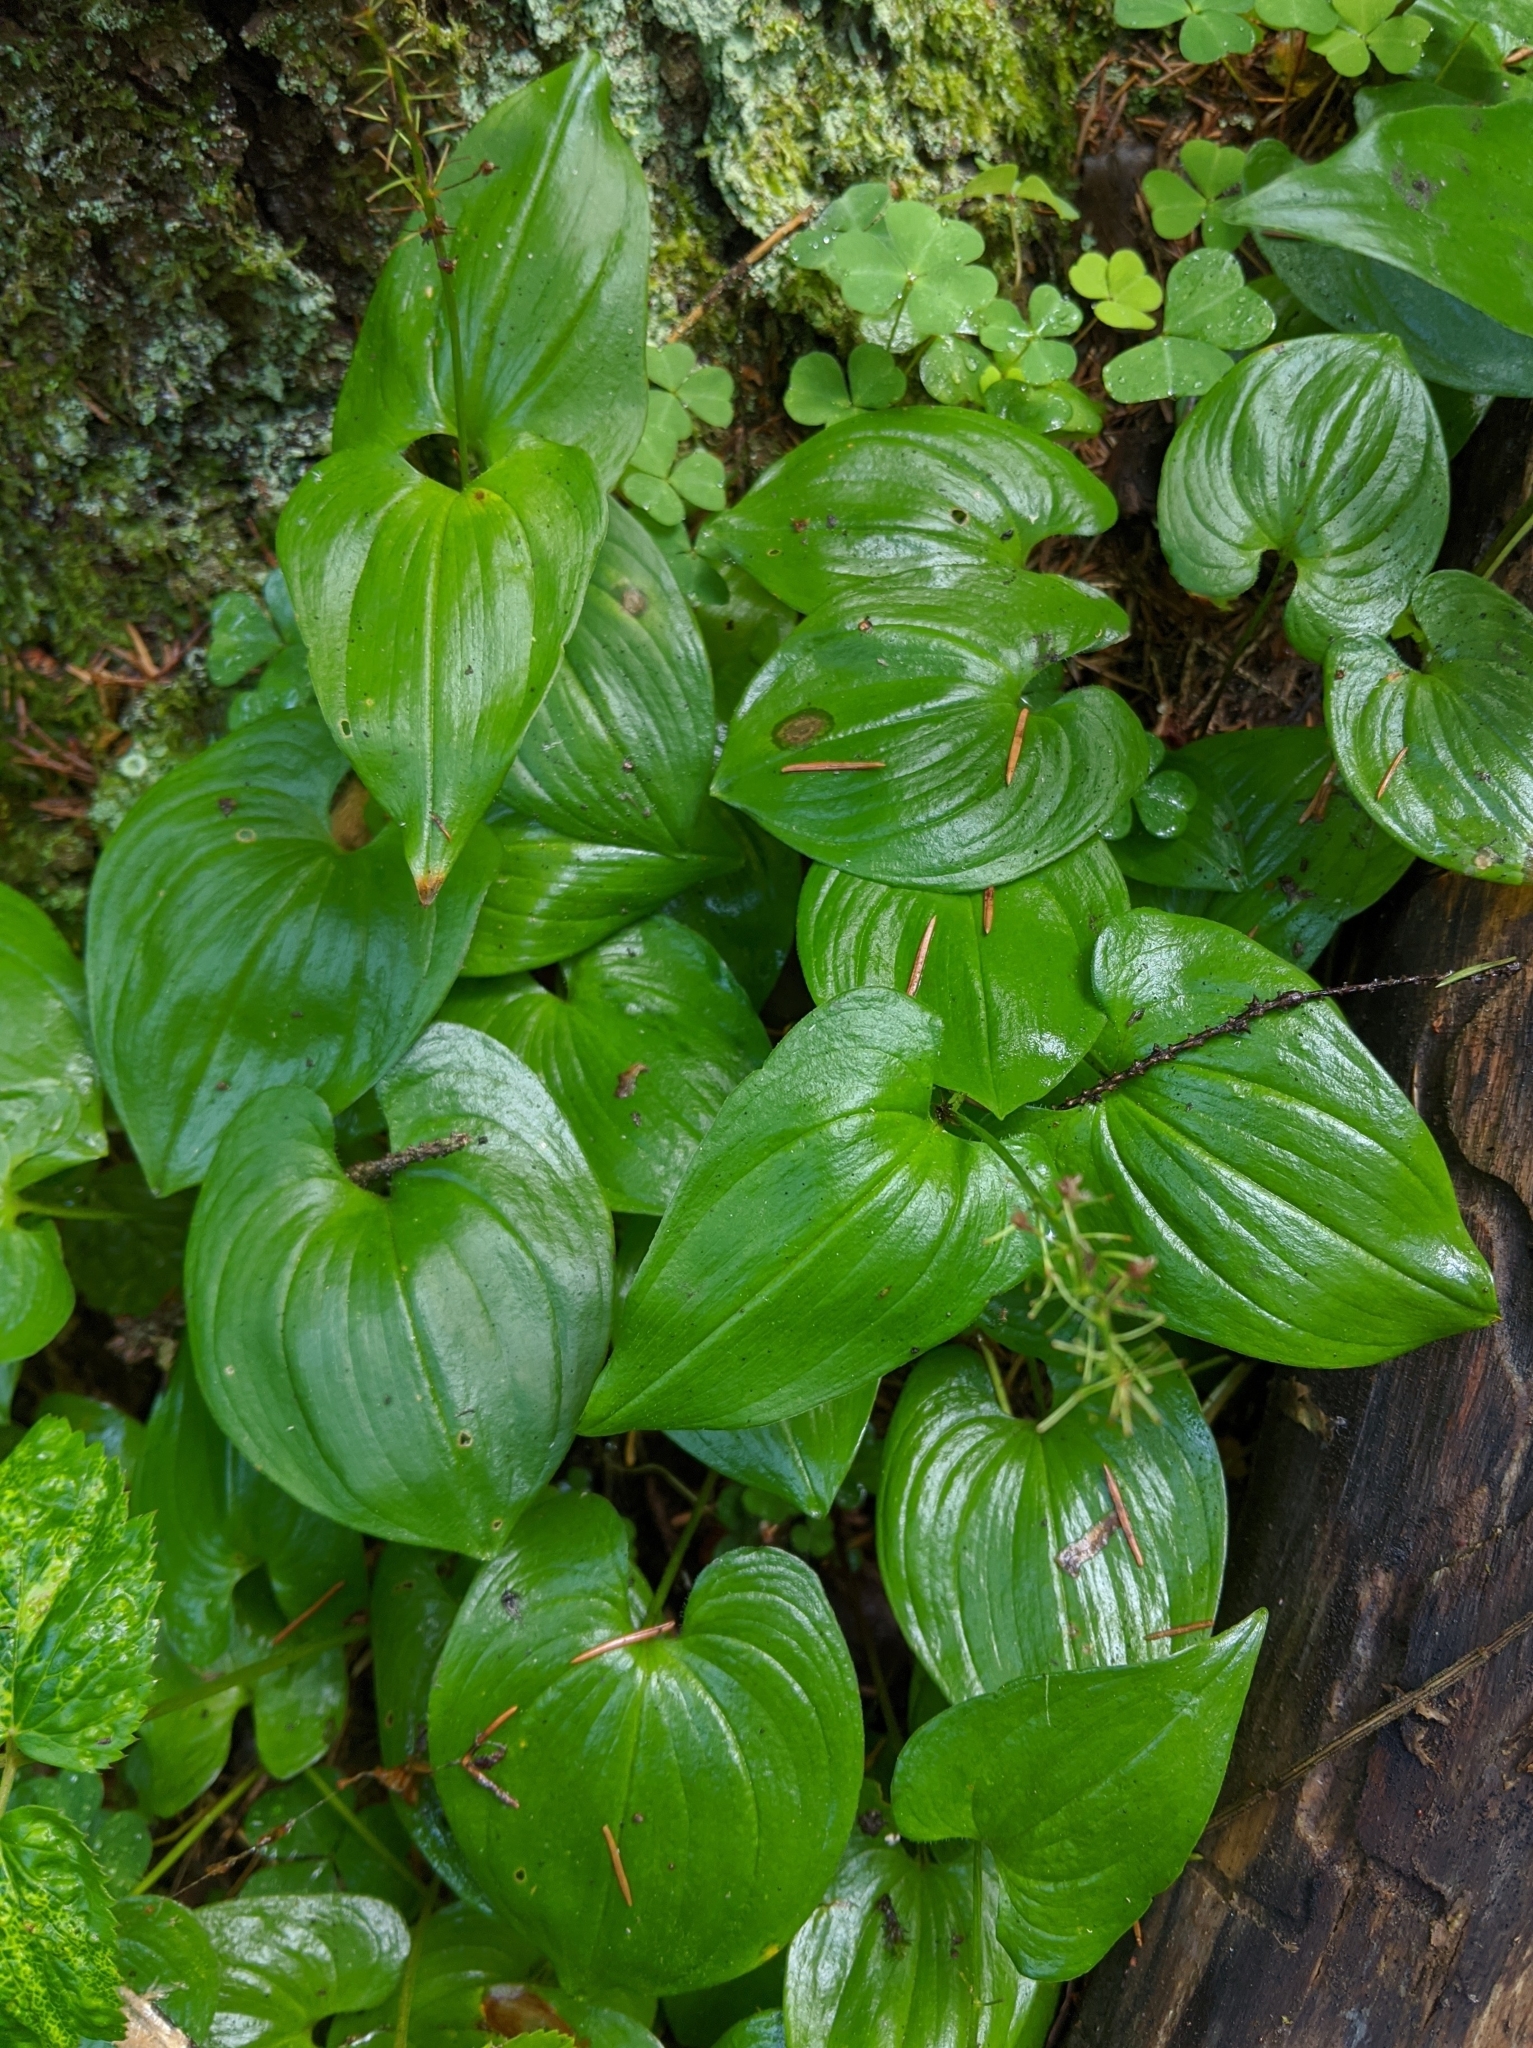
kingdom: Plantae
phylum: Tracheophyta
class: Liliopsida
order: Asparagales
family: Asparagaceae
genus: Maianthemum
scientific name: Maianthemum bifolium
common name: May lily
